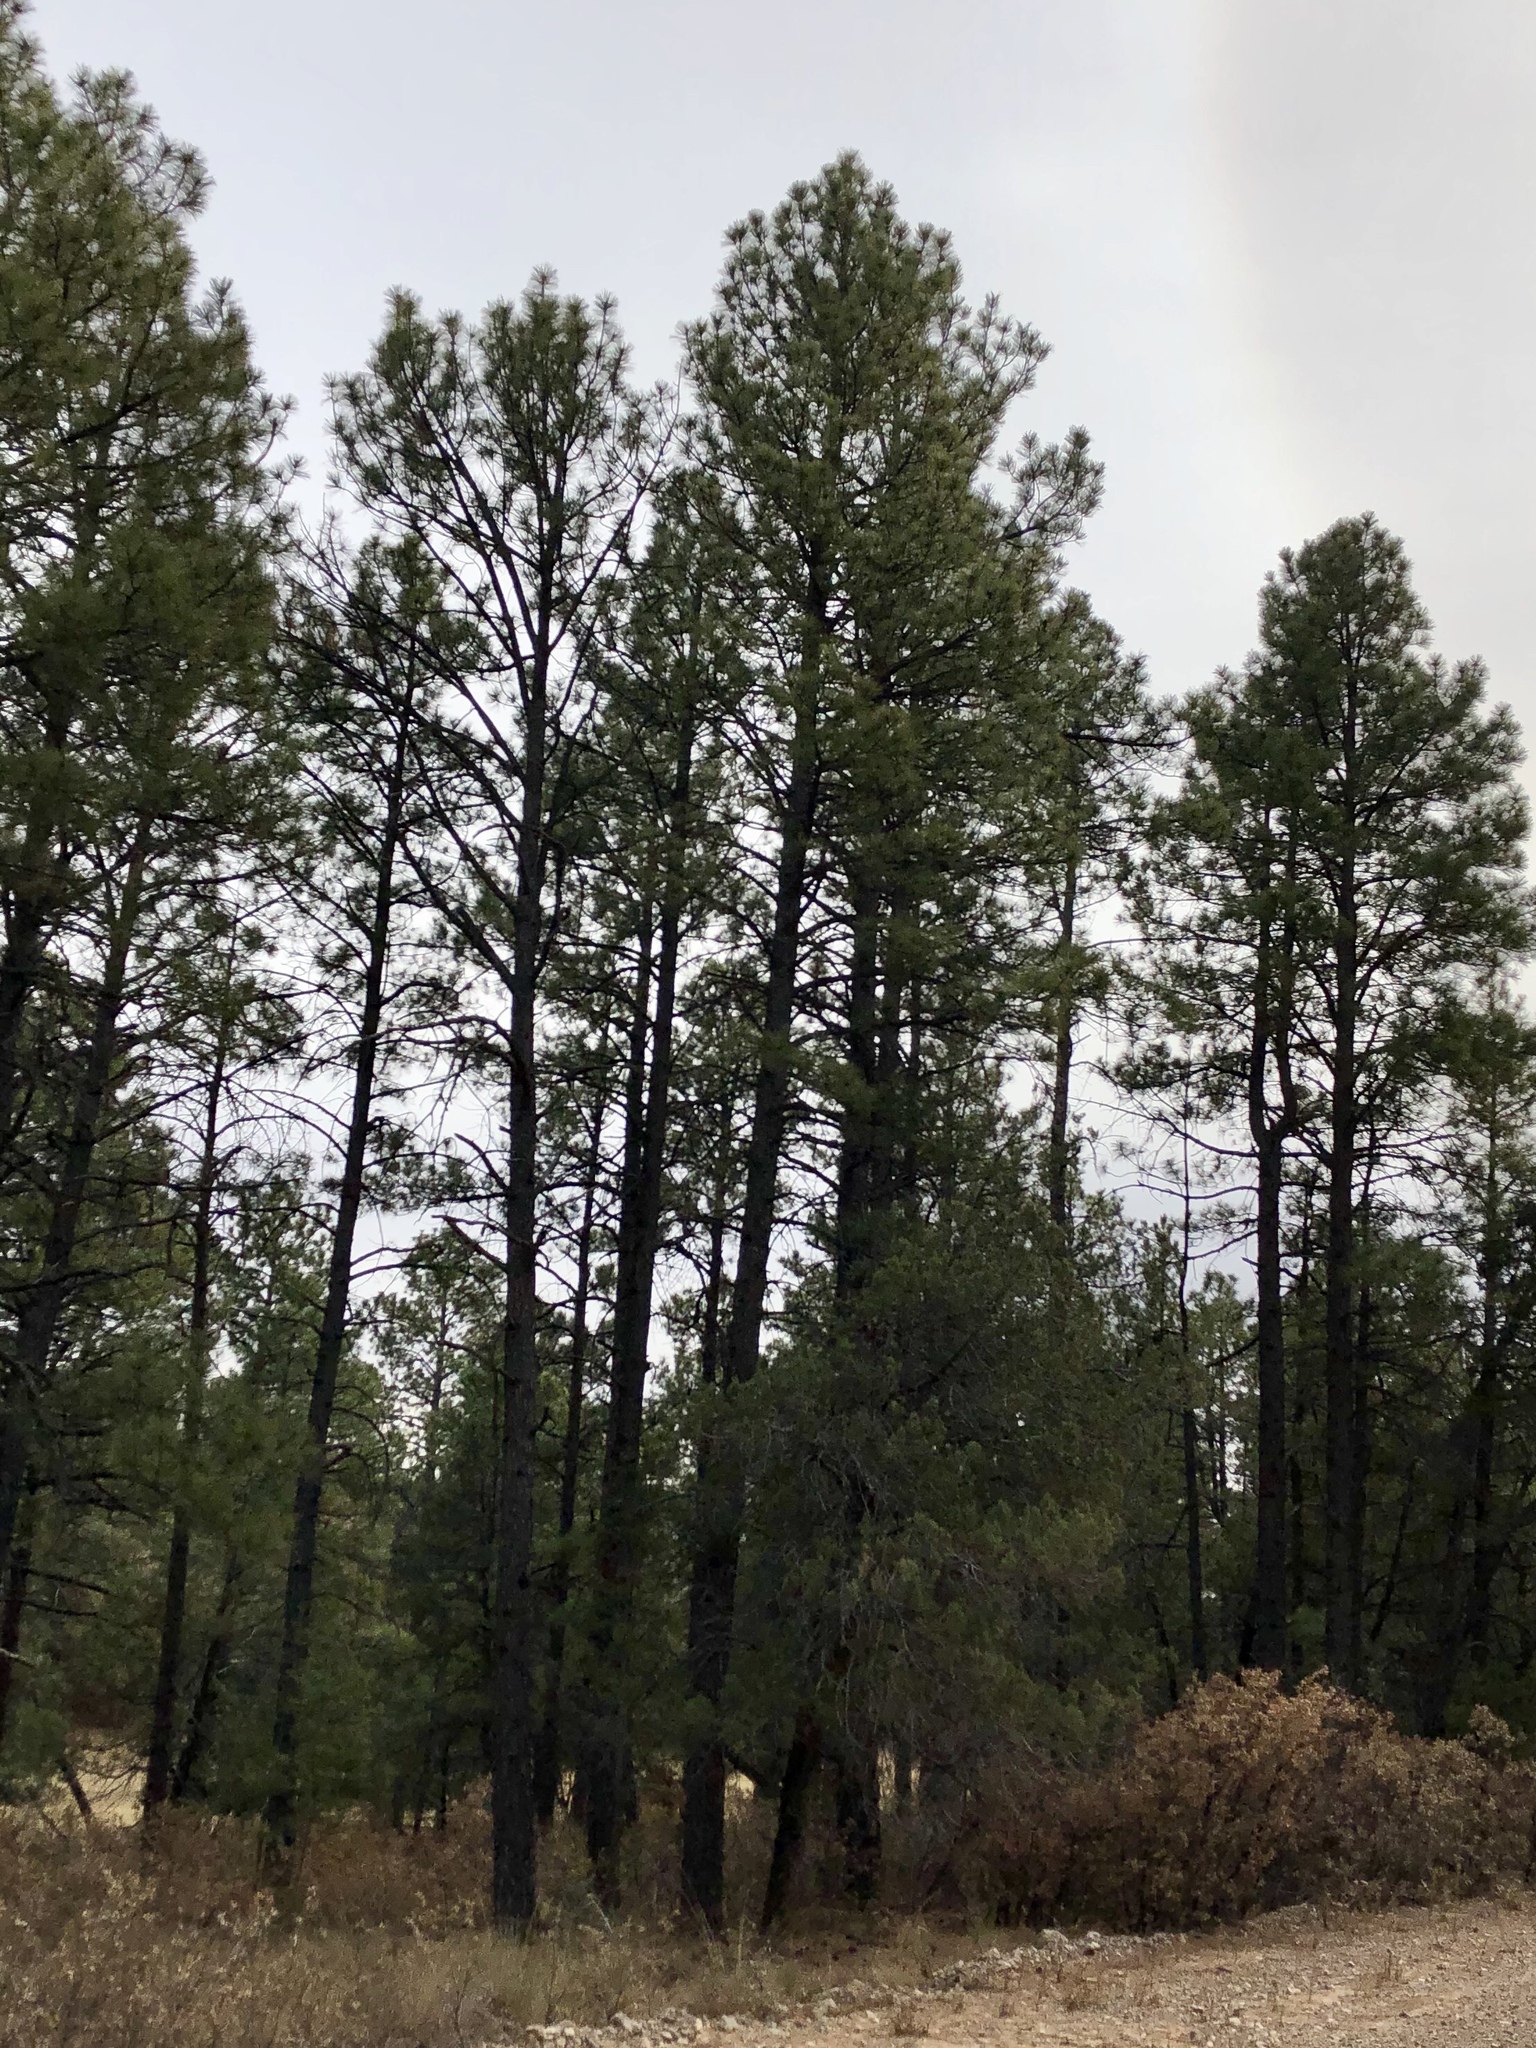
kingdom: Plantae
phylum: Tracheophyta
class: Pinopsida
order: Pinales
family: Pinaceae
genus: Pinus
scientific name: Pinus ponderosa
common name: Western yellow-pine
